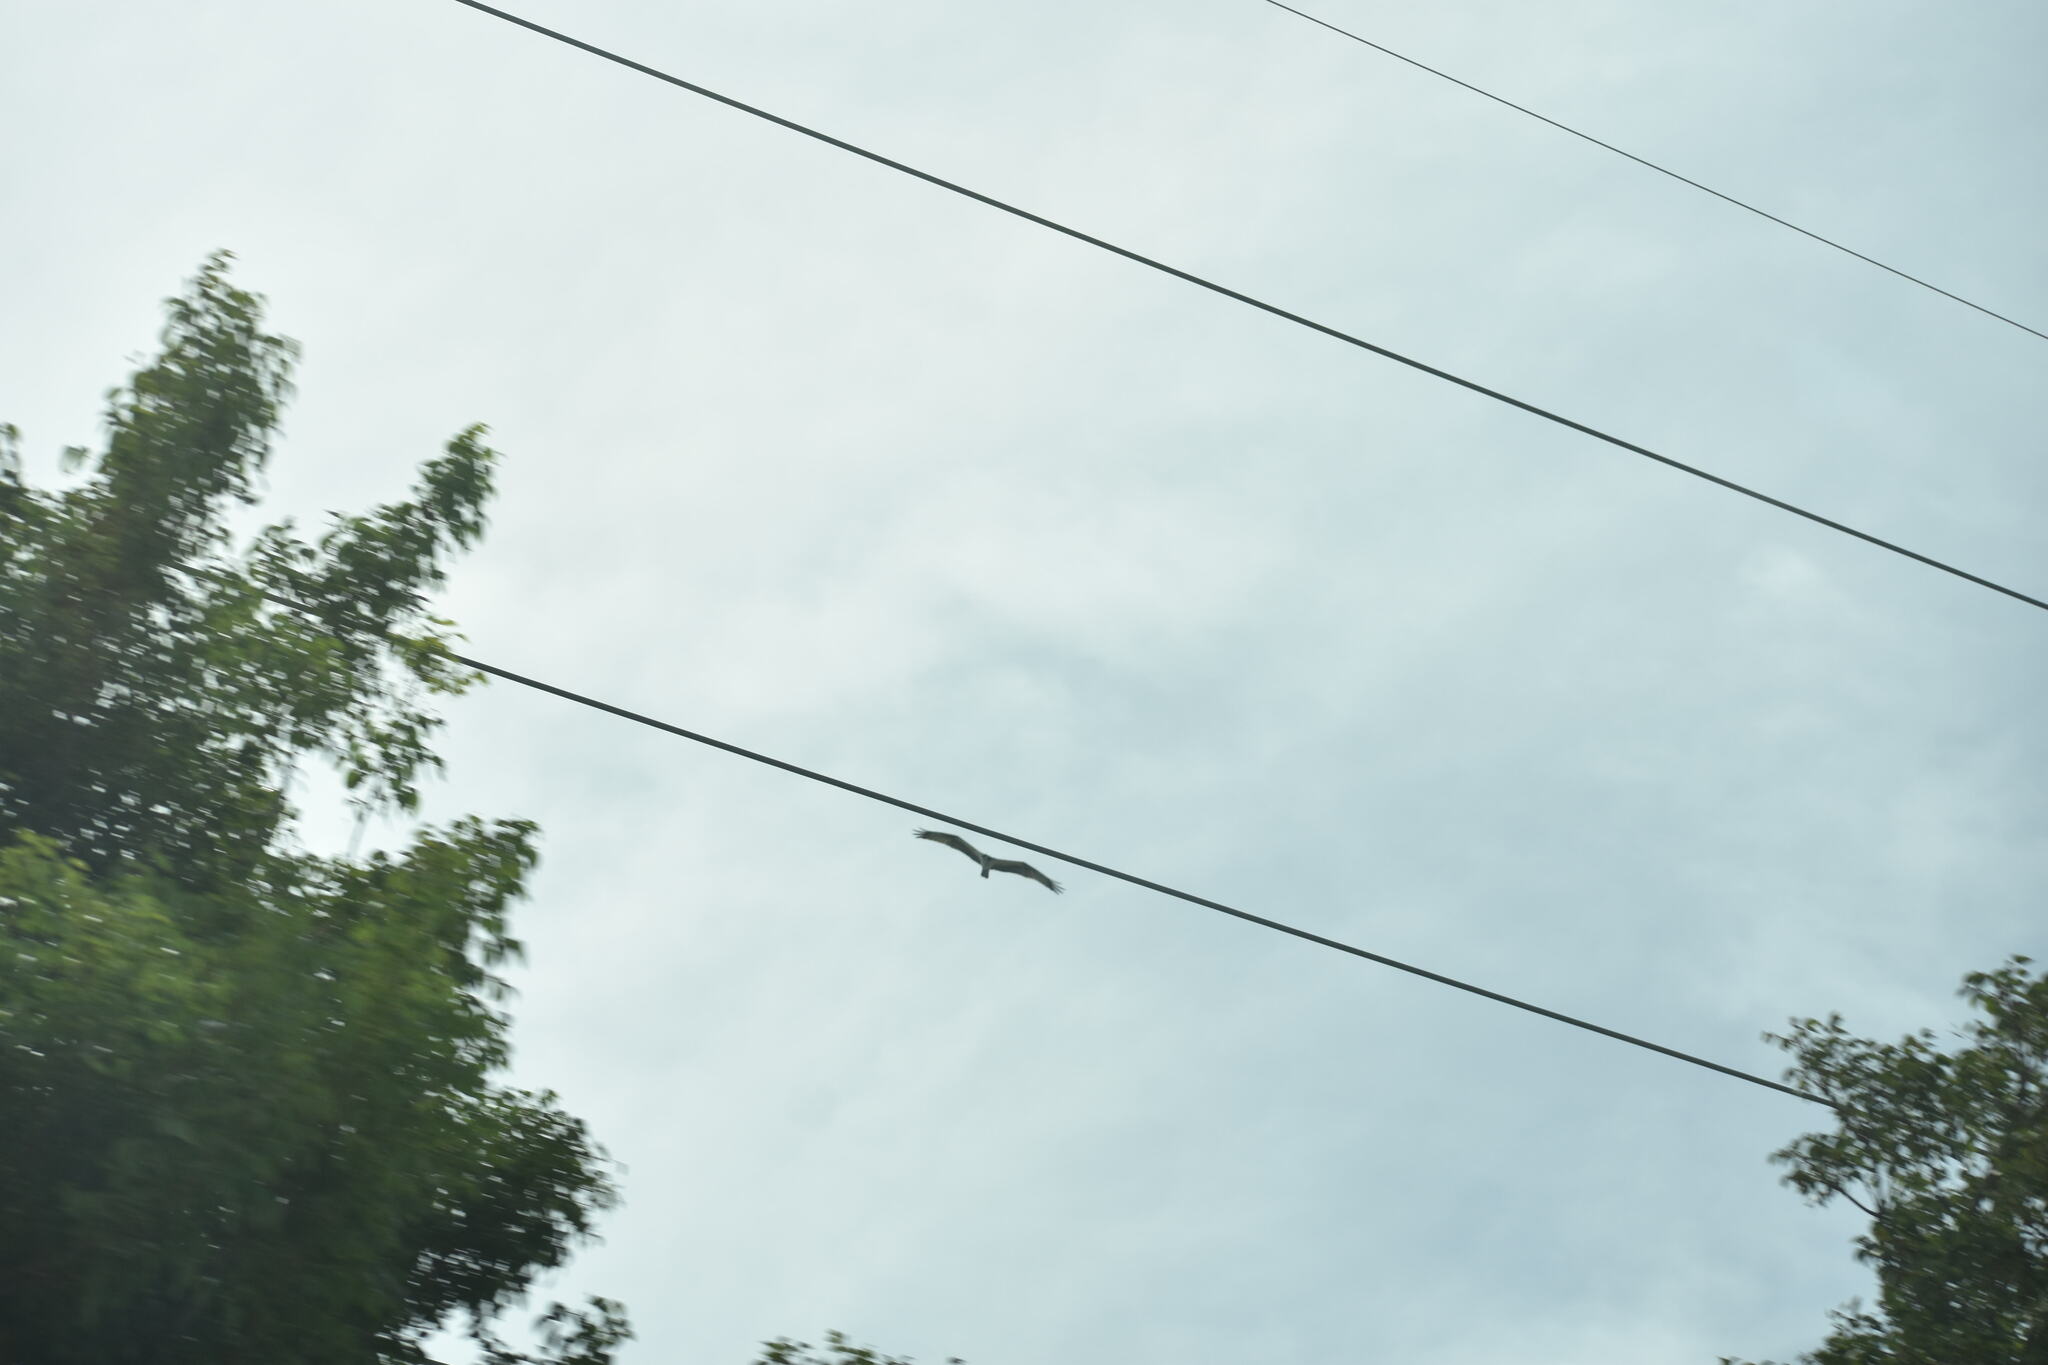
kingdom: Animalia
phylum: Chordata
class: Aves
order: Accipitriformes
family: Pandionidae
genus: Pandion
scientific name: Pandion haliaetus
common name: Osprey
